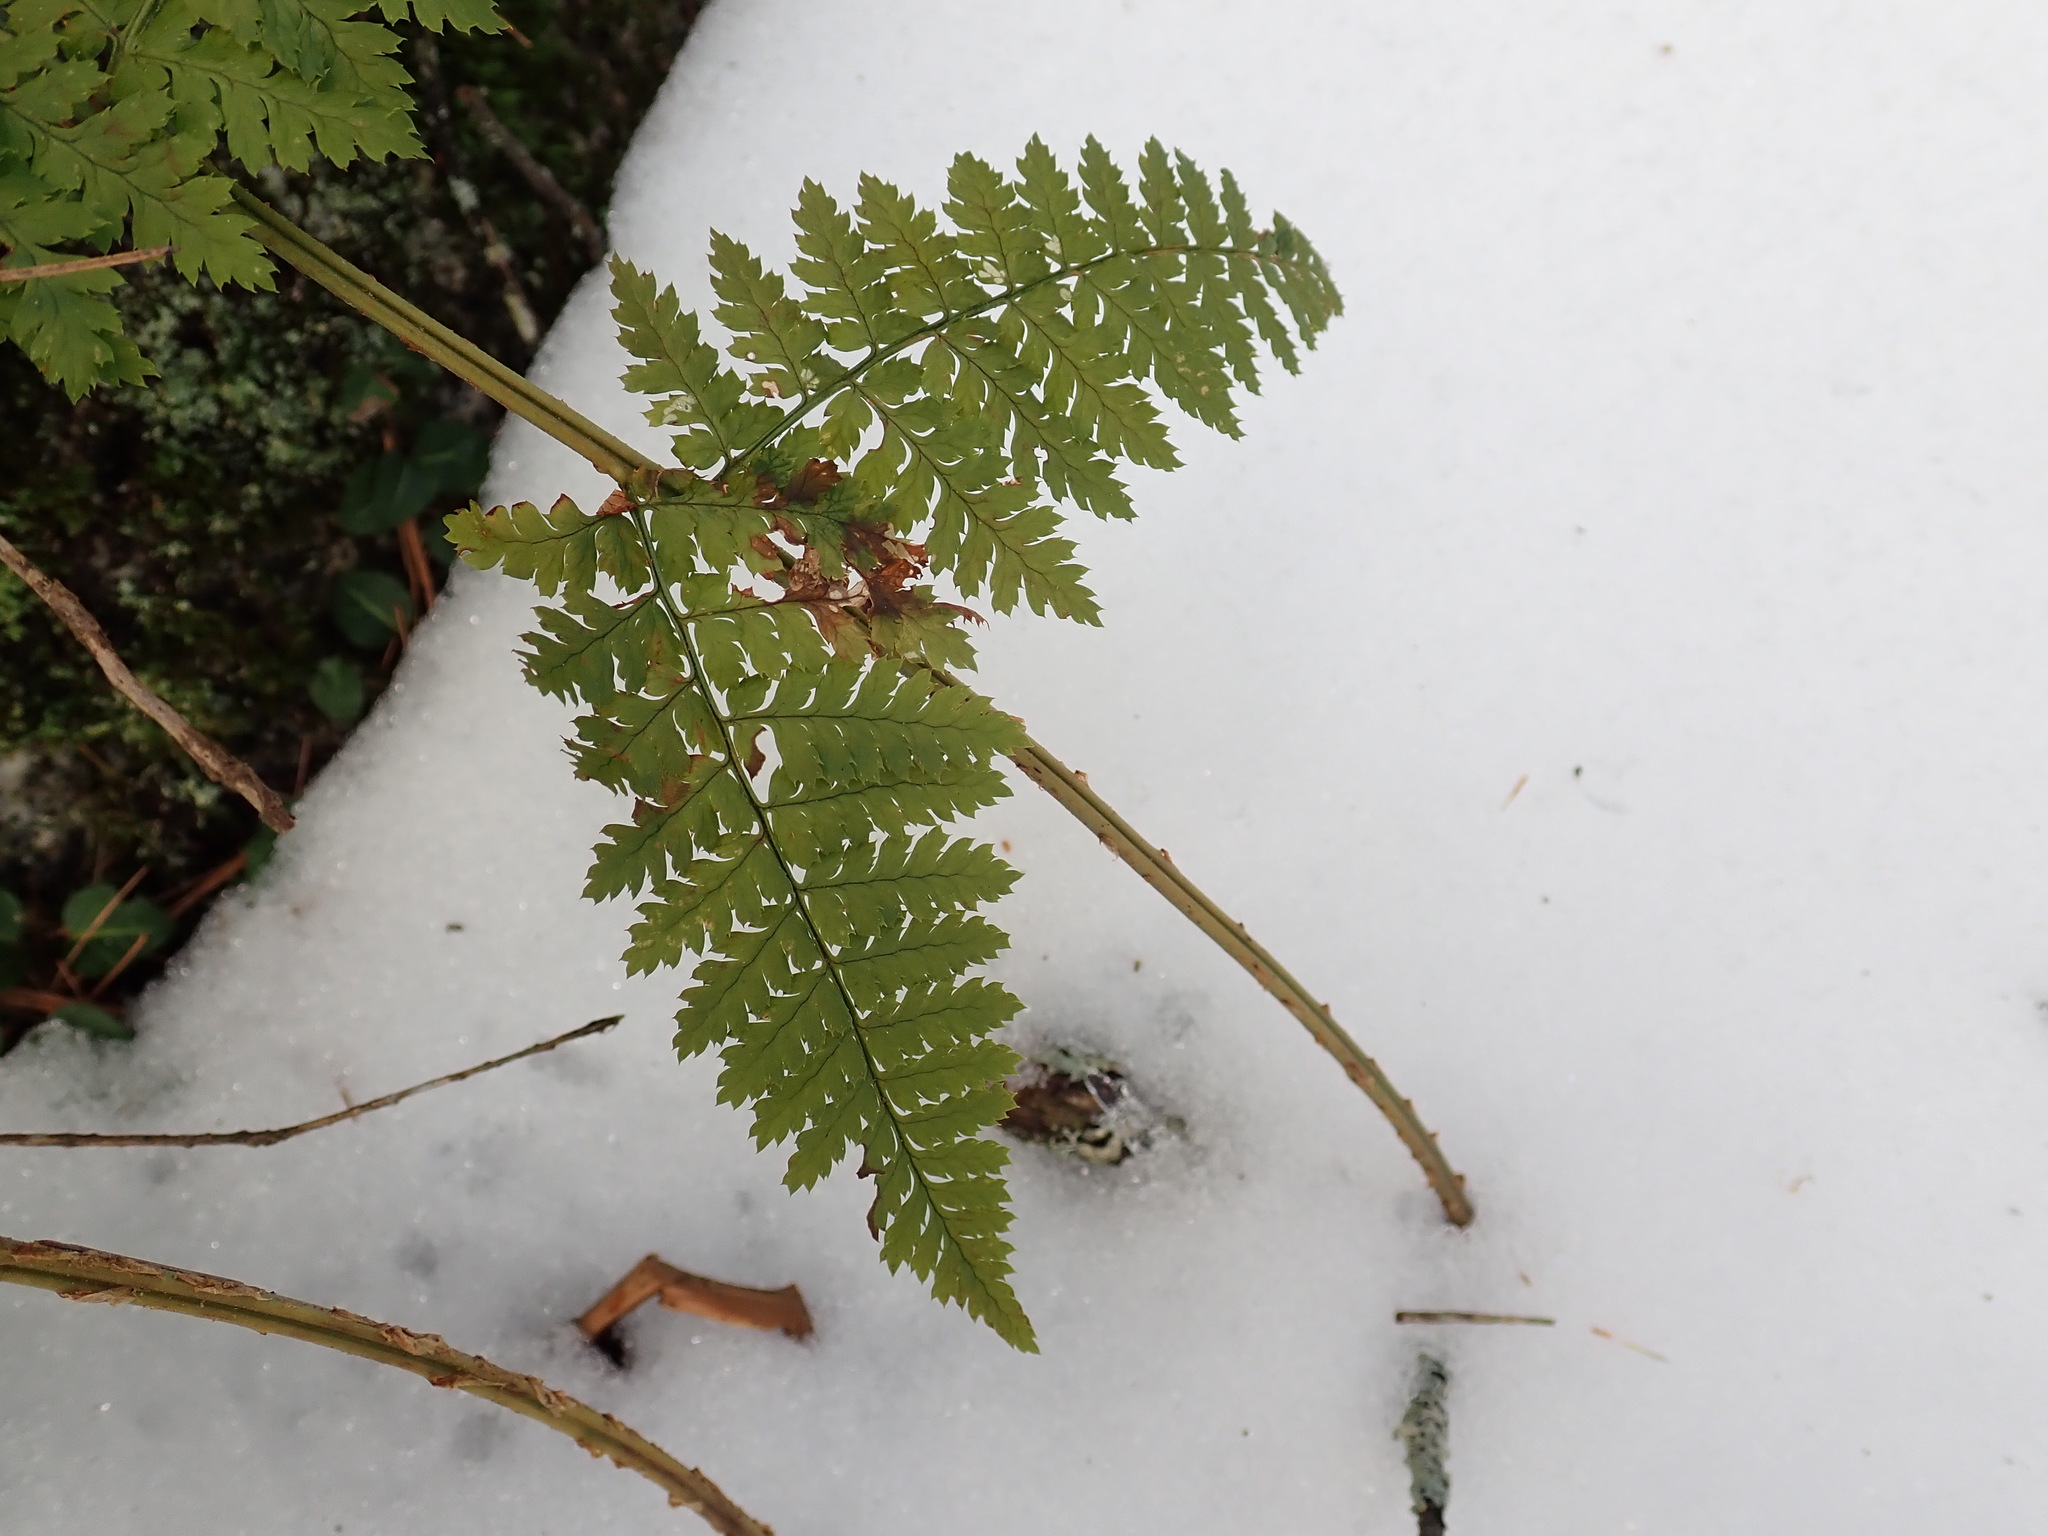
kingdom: Plantae
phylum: Tracheophyta
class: Polypodiopsida
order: Polypodiales
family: Dryopteridaceae
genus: Dryopteris
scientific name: Dryopteris intermedia
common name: Evergreen wood fern
